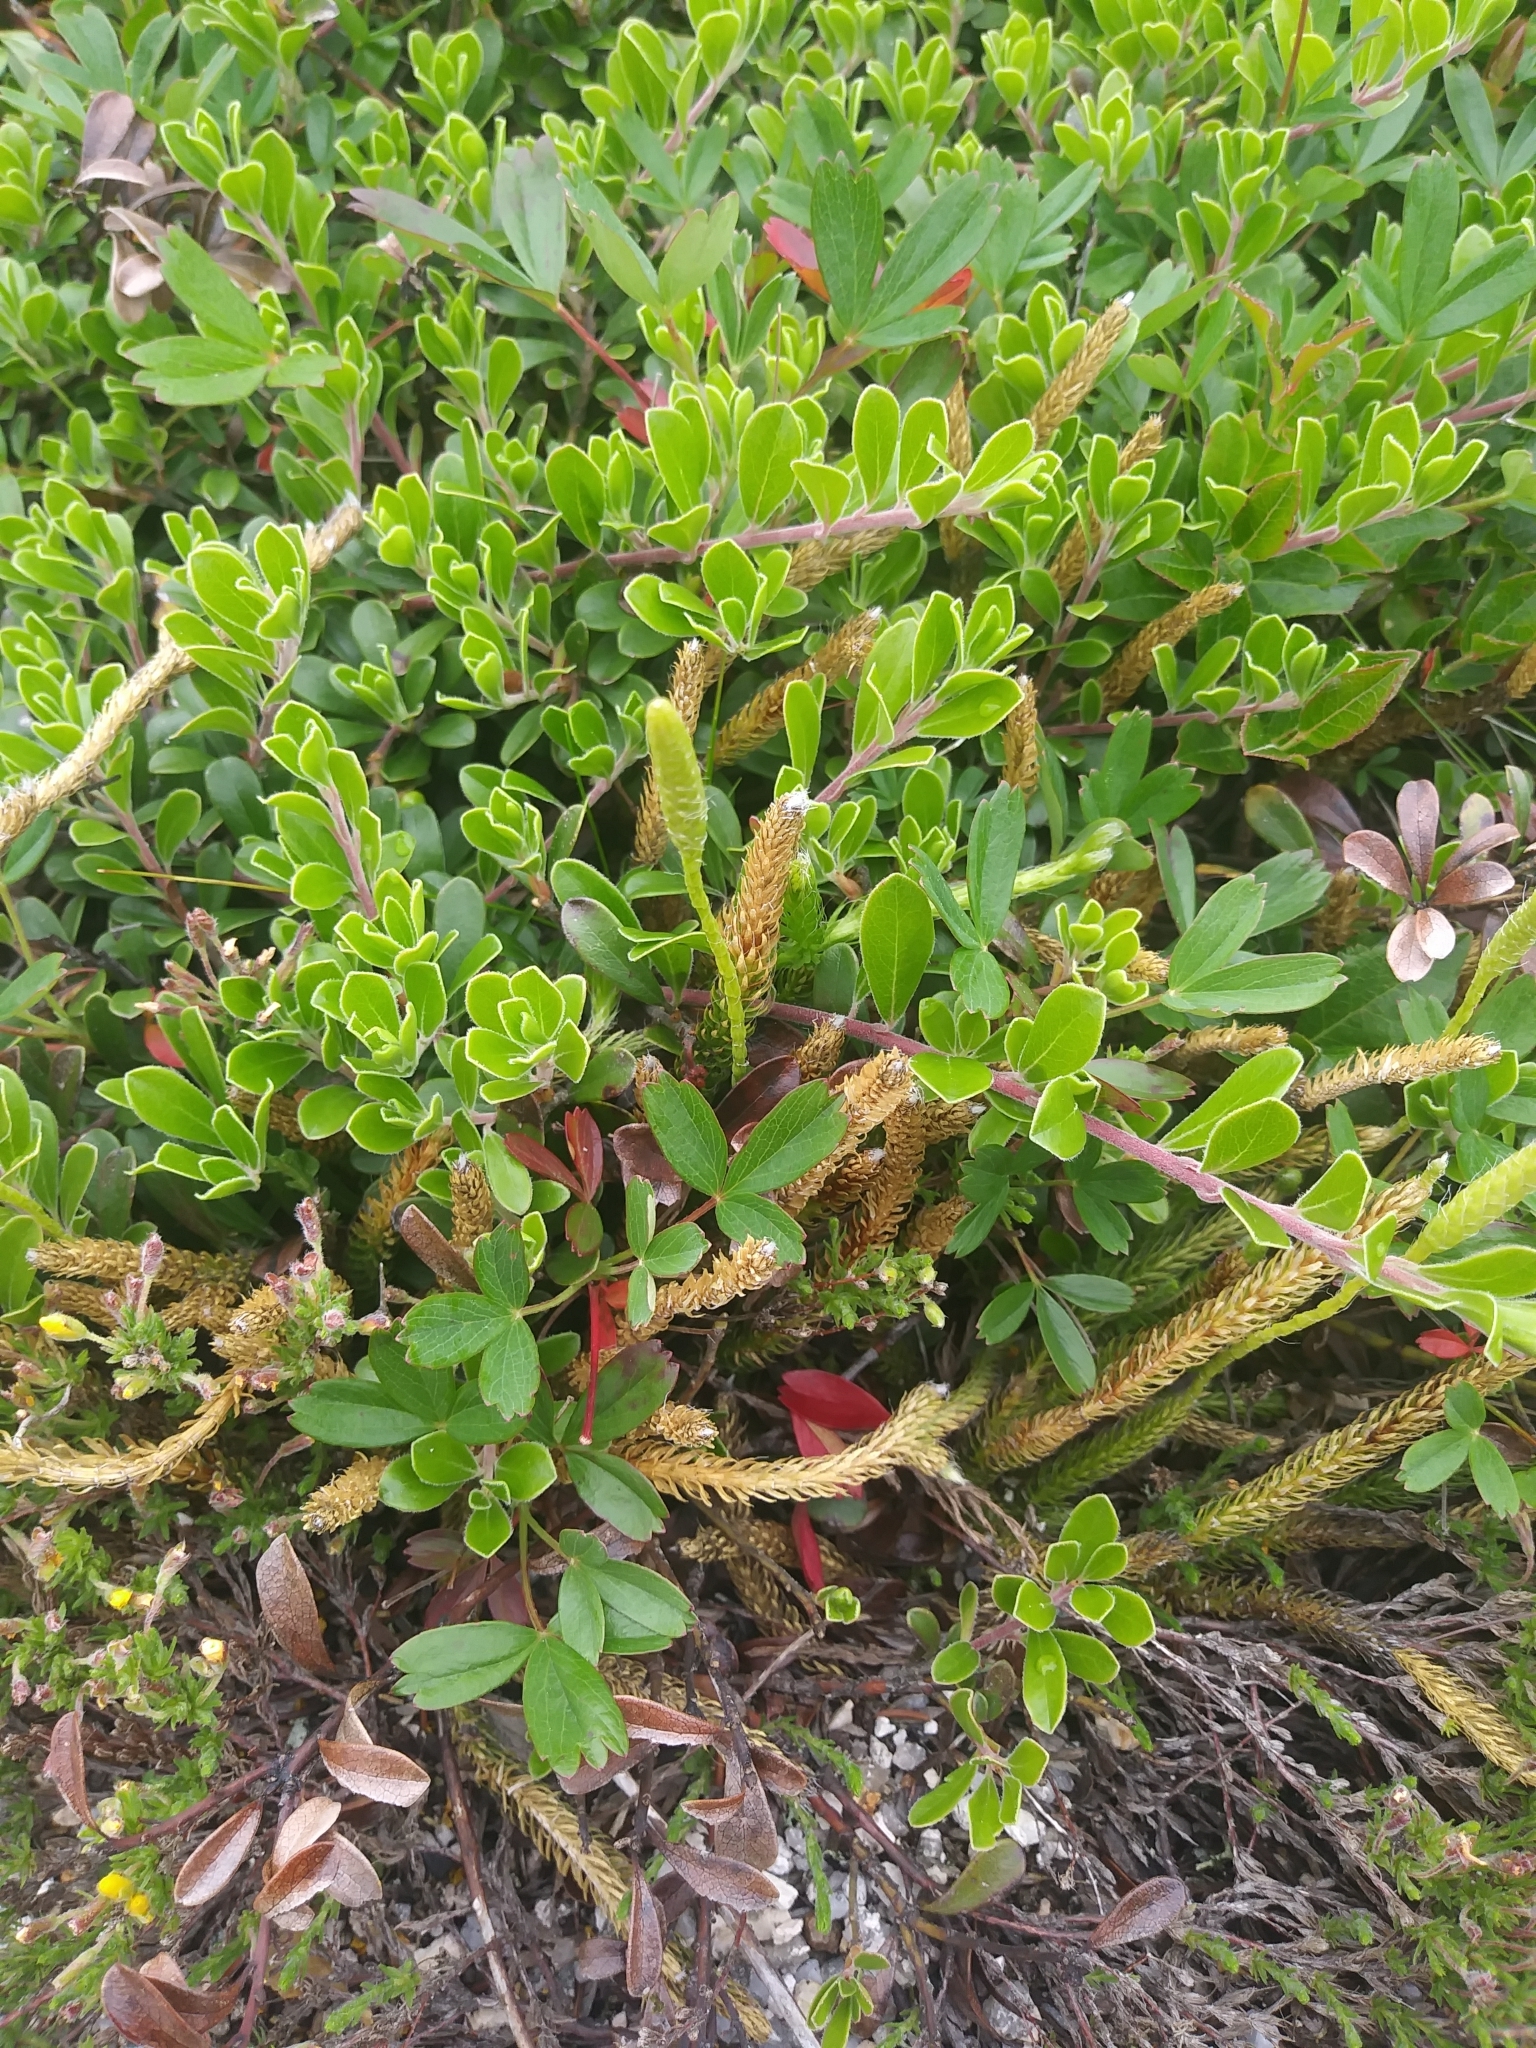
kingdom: Plantae
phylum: Tracheophyta
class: Magnoliopsida
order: Ericales
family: Ericaceae
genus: Arctostaphylos
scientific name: Arctostaphylos uva-ursi
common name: Bearberry
